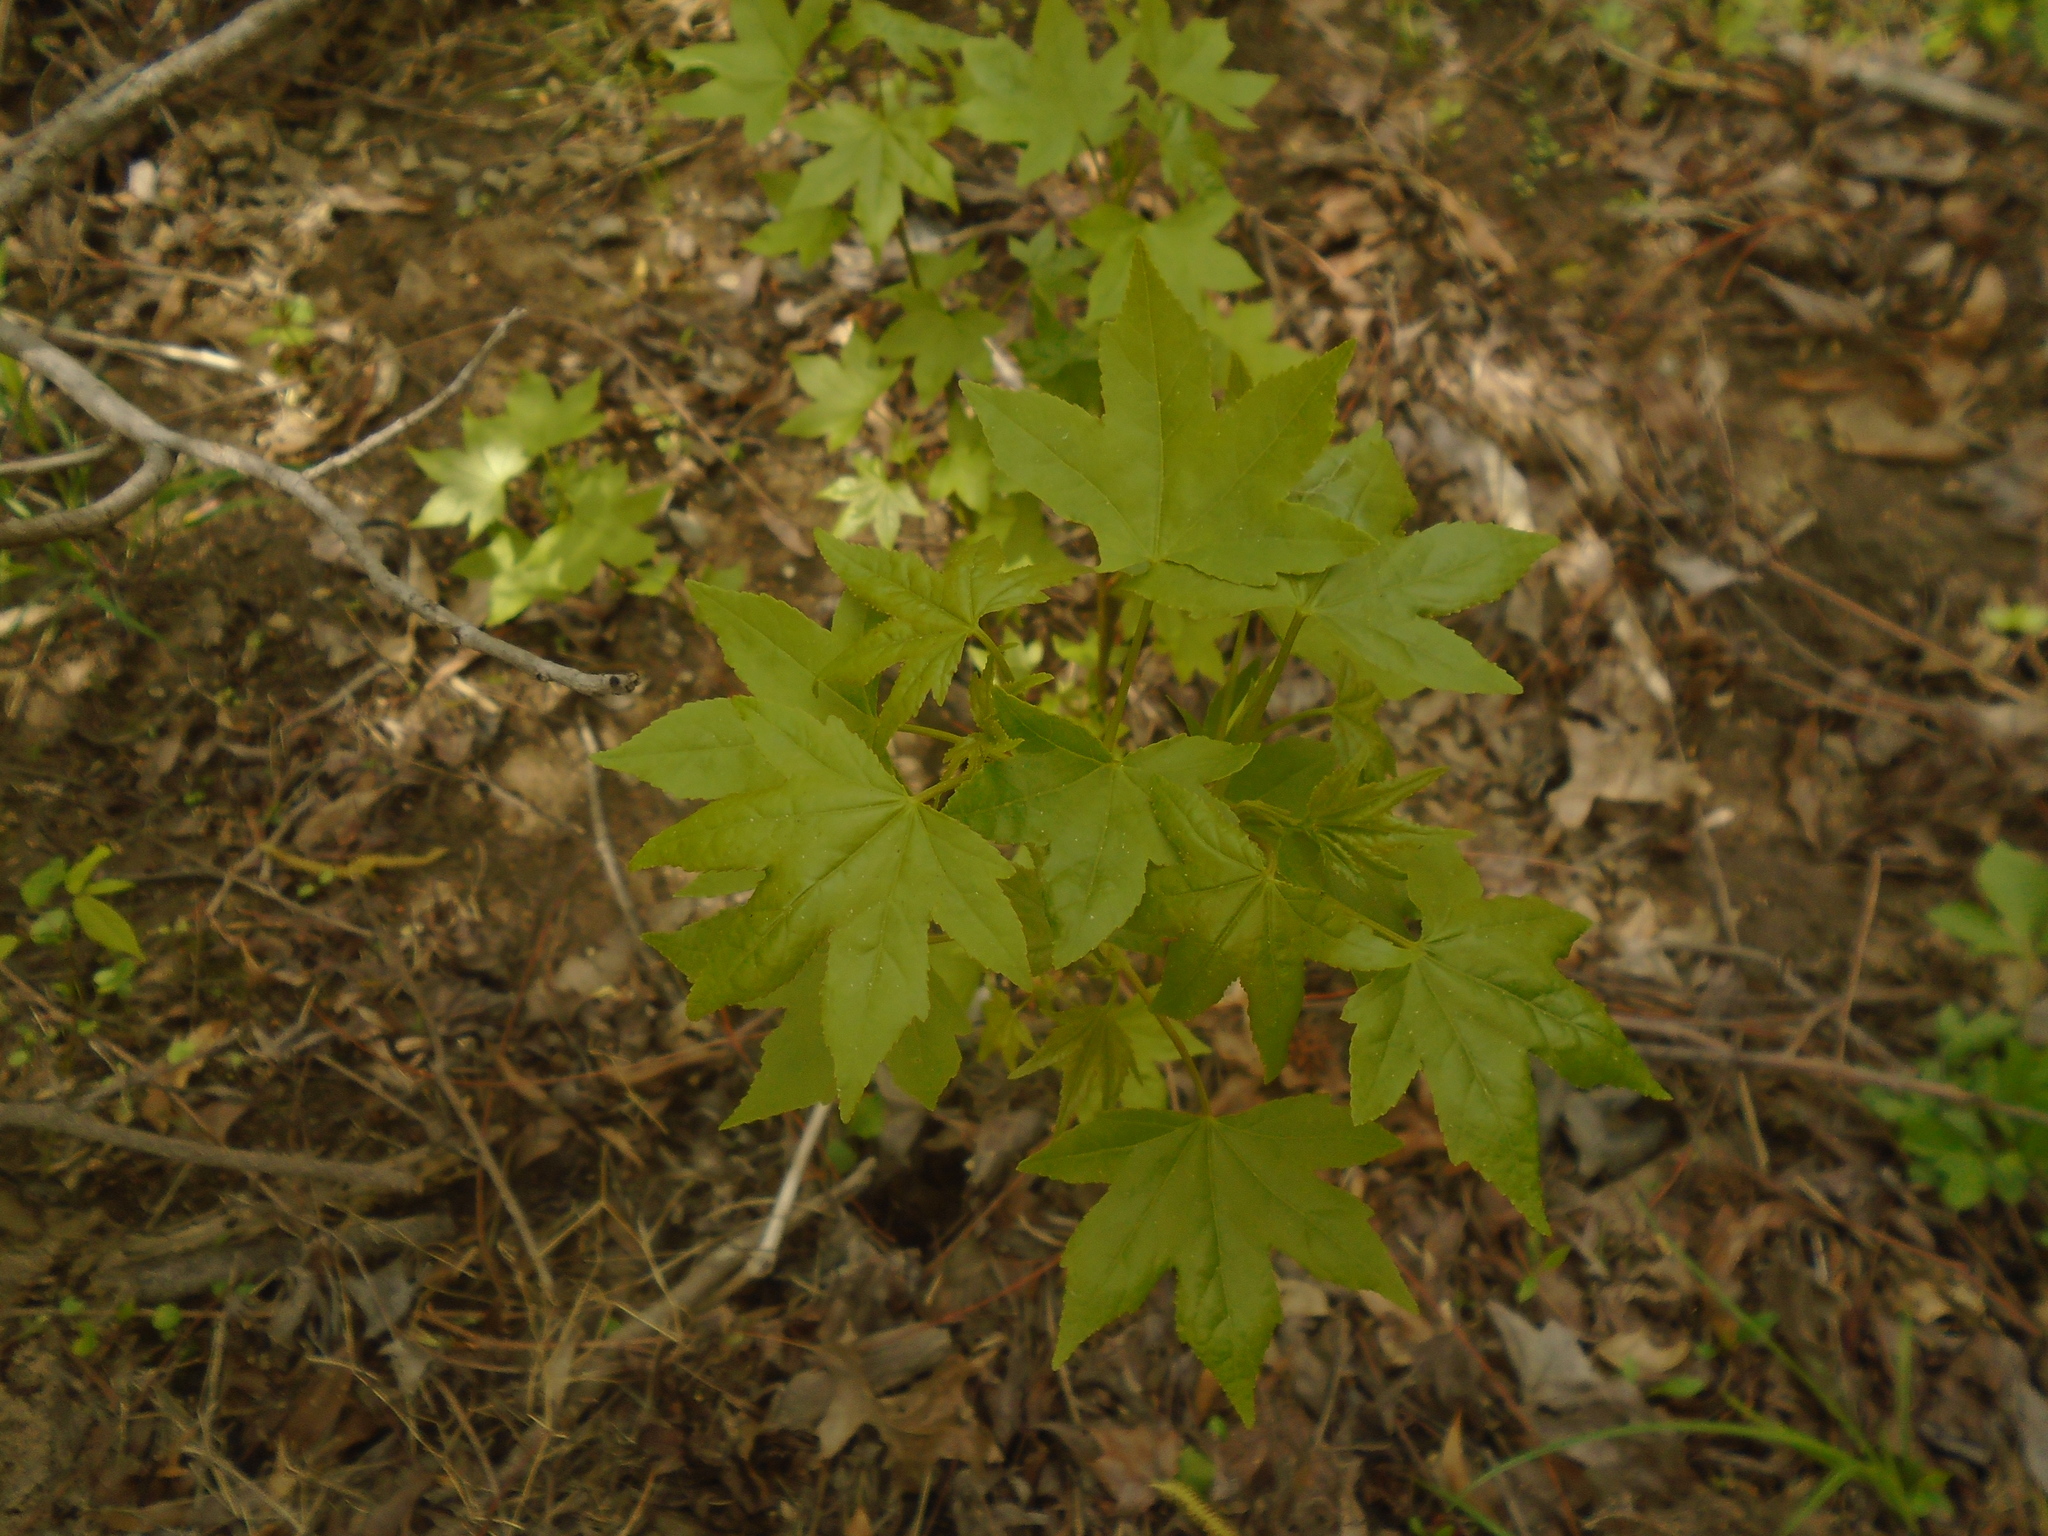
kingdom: Plantae
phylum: Tracheophyta
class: Magnoliopsida
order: Saxifragales
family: Altingiaceae
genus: Liquidambar
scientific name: Liquidambar styraciflua
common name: Sweet gum
